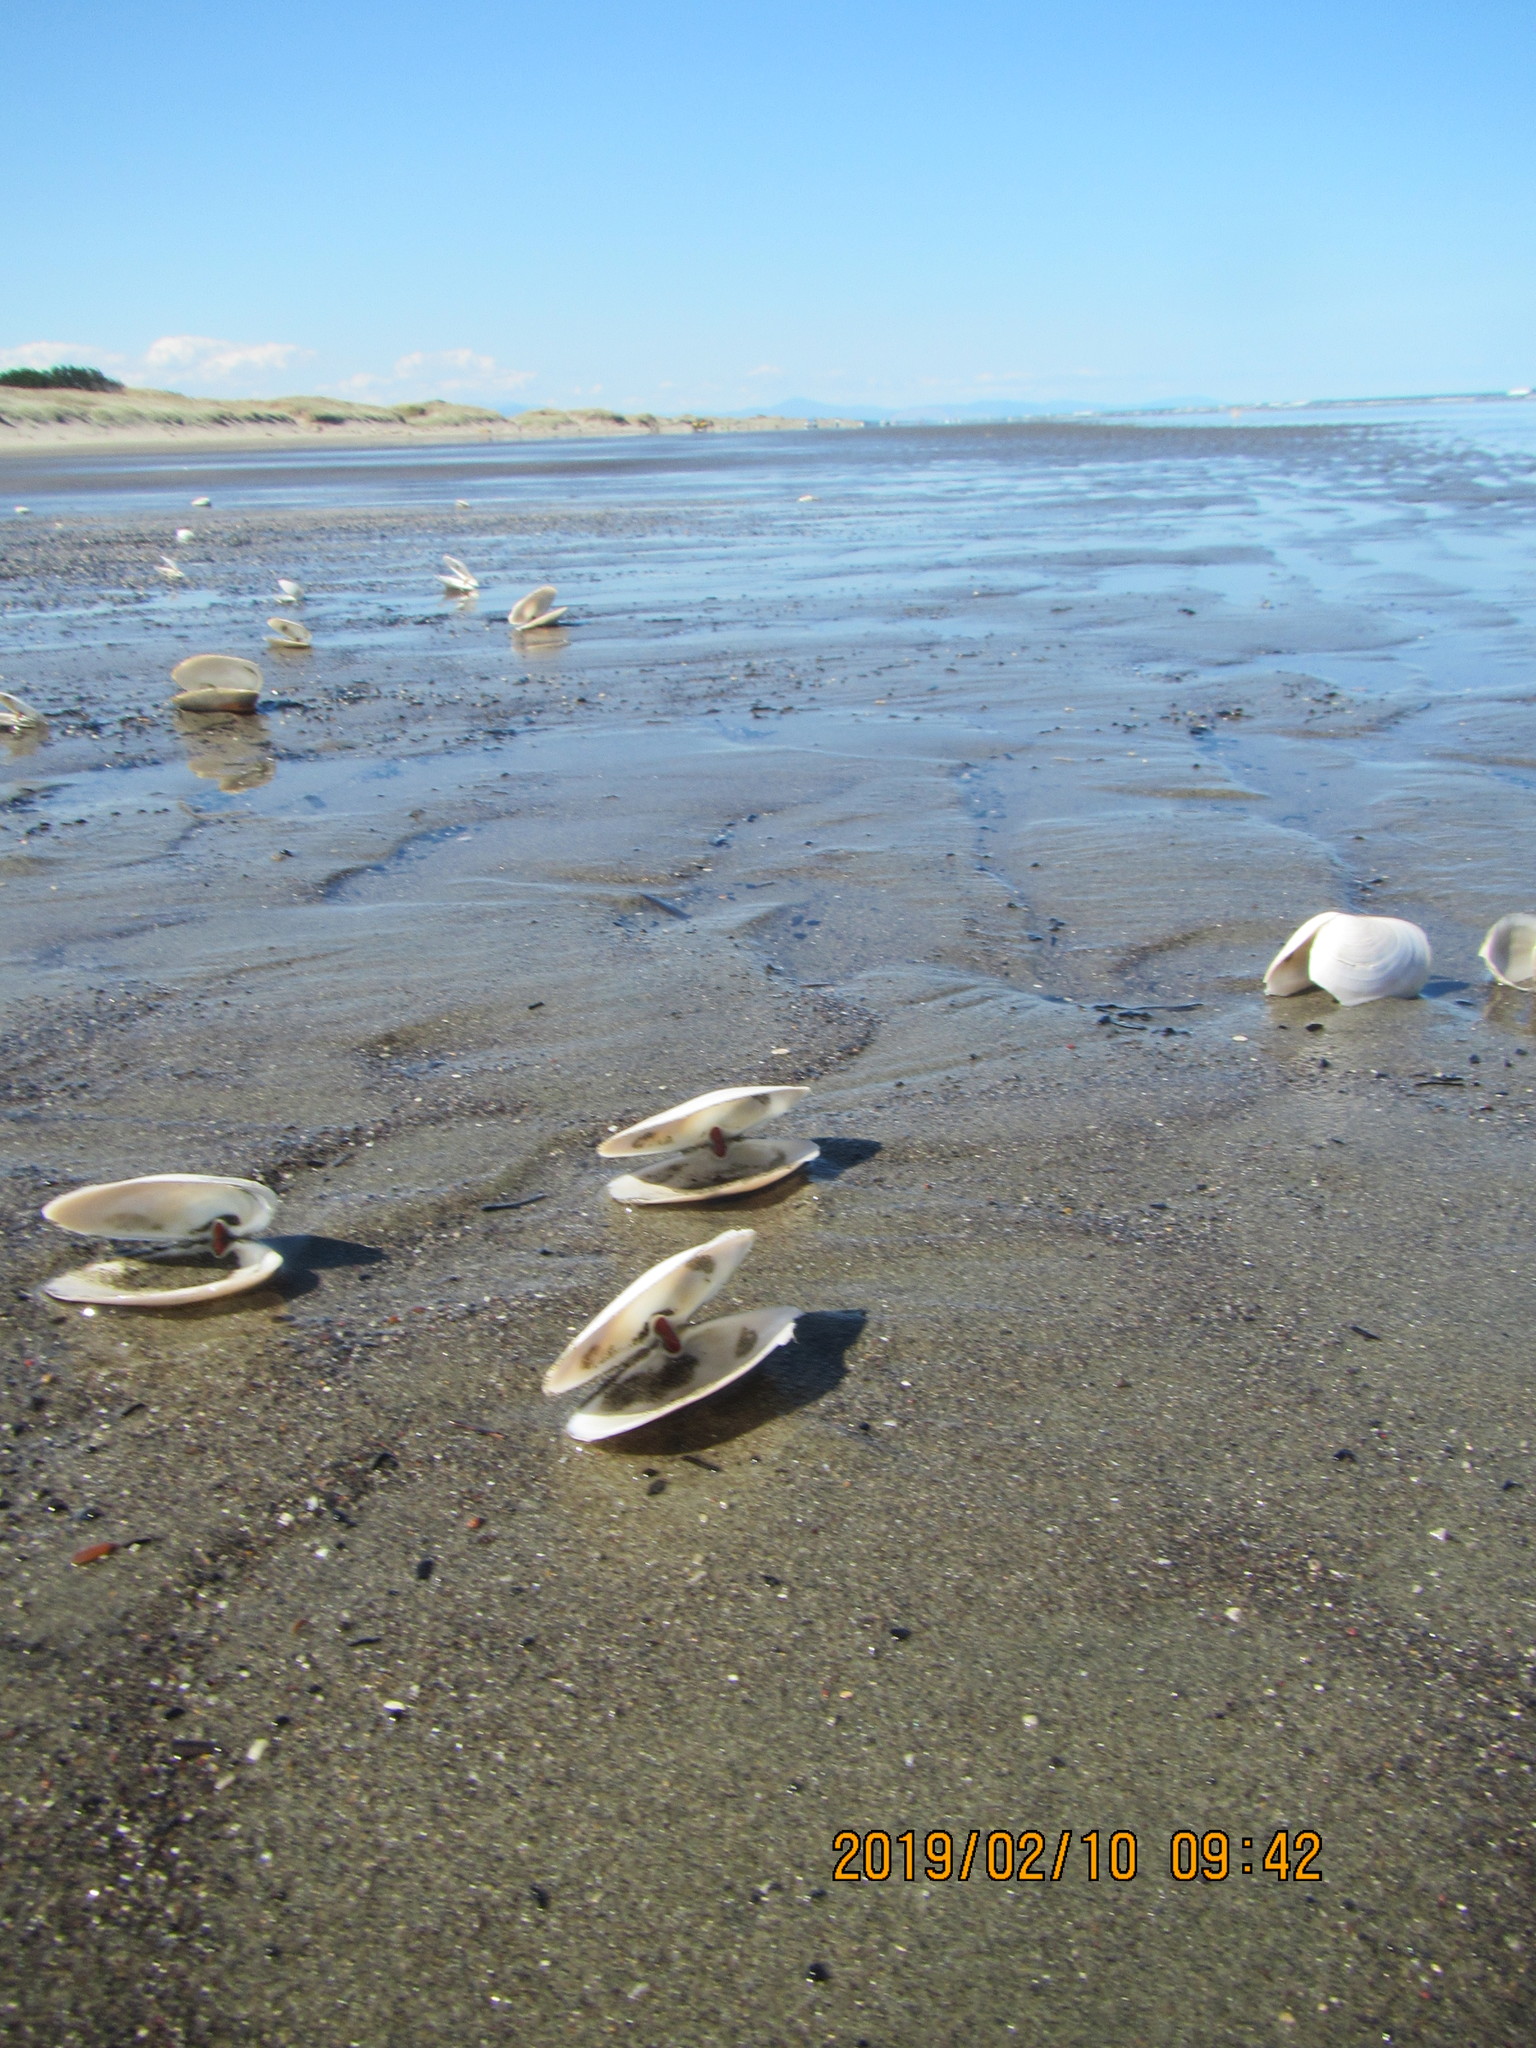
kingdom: Animalia
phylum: Mollusca
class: Bivalvia
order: Venerida
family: Mesodesmatidae
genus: Paphies
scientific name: Paphies ventricosa
